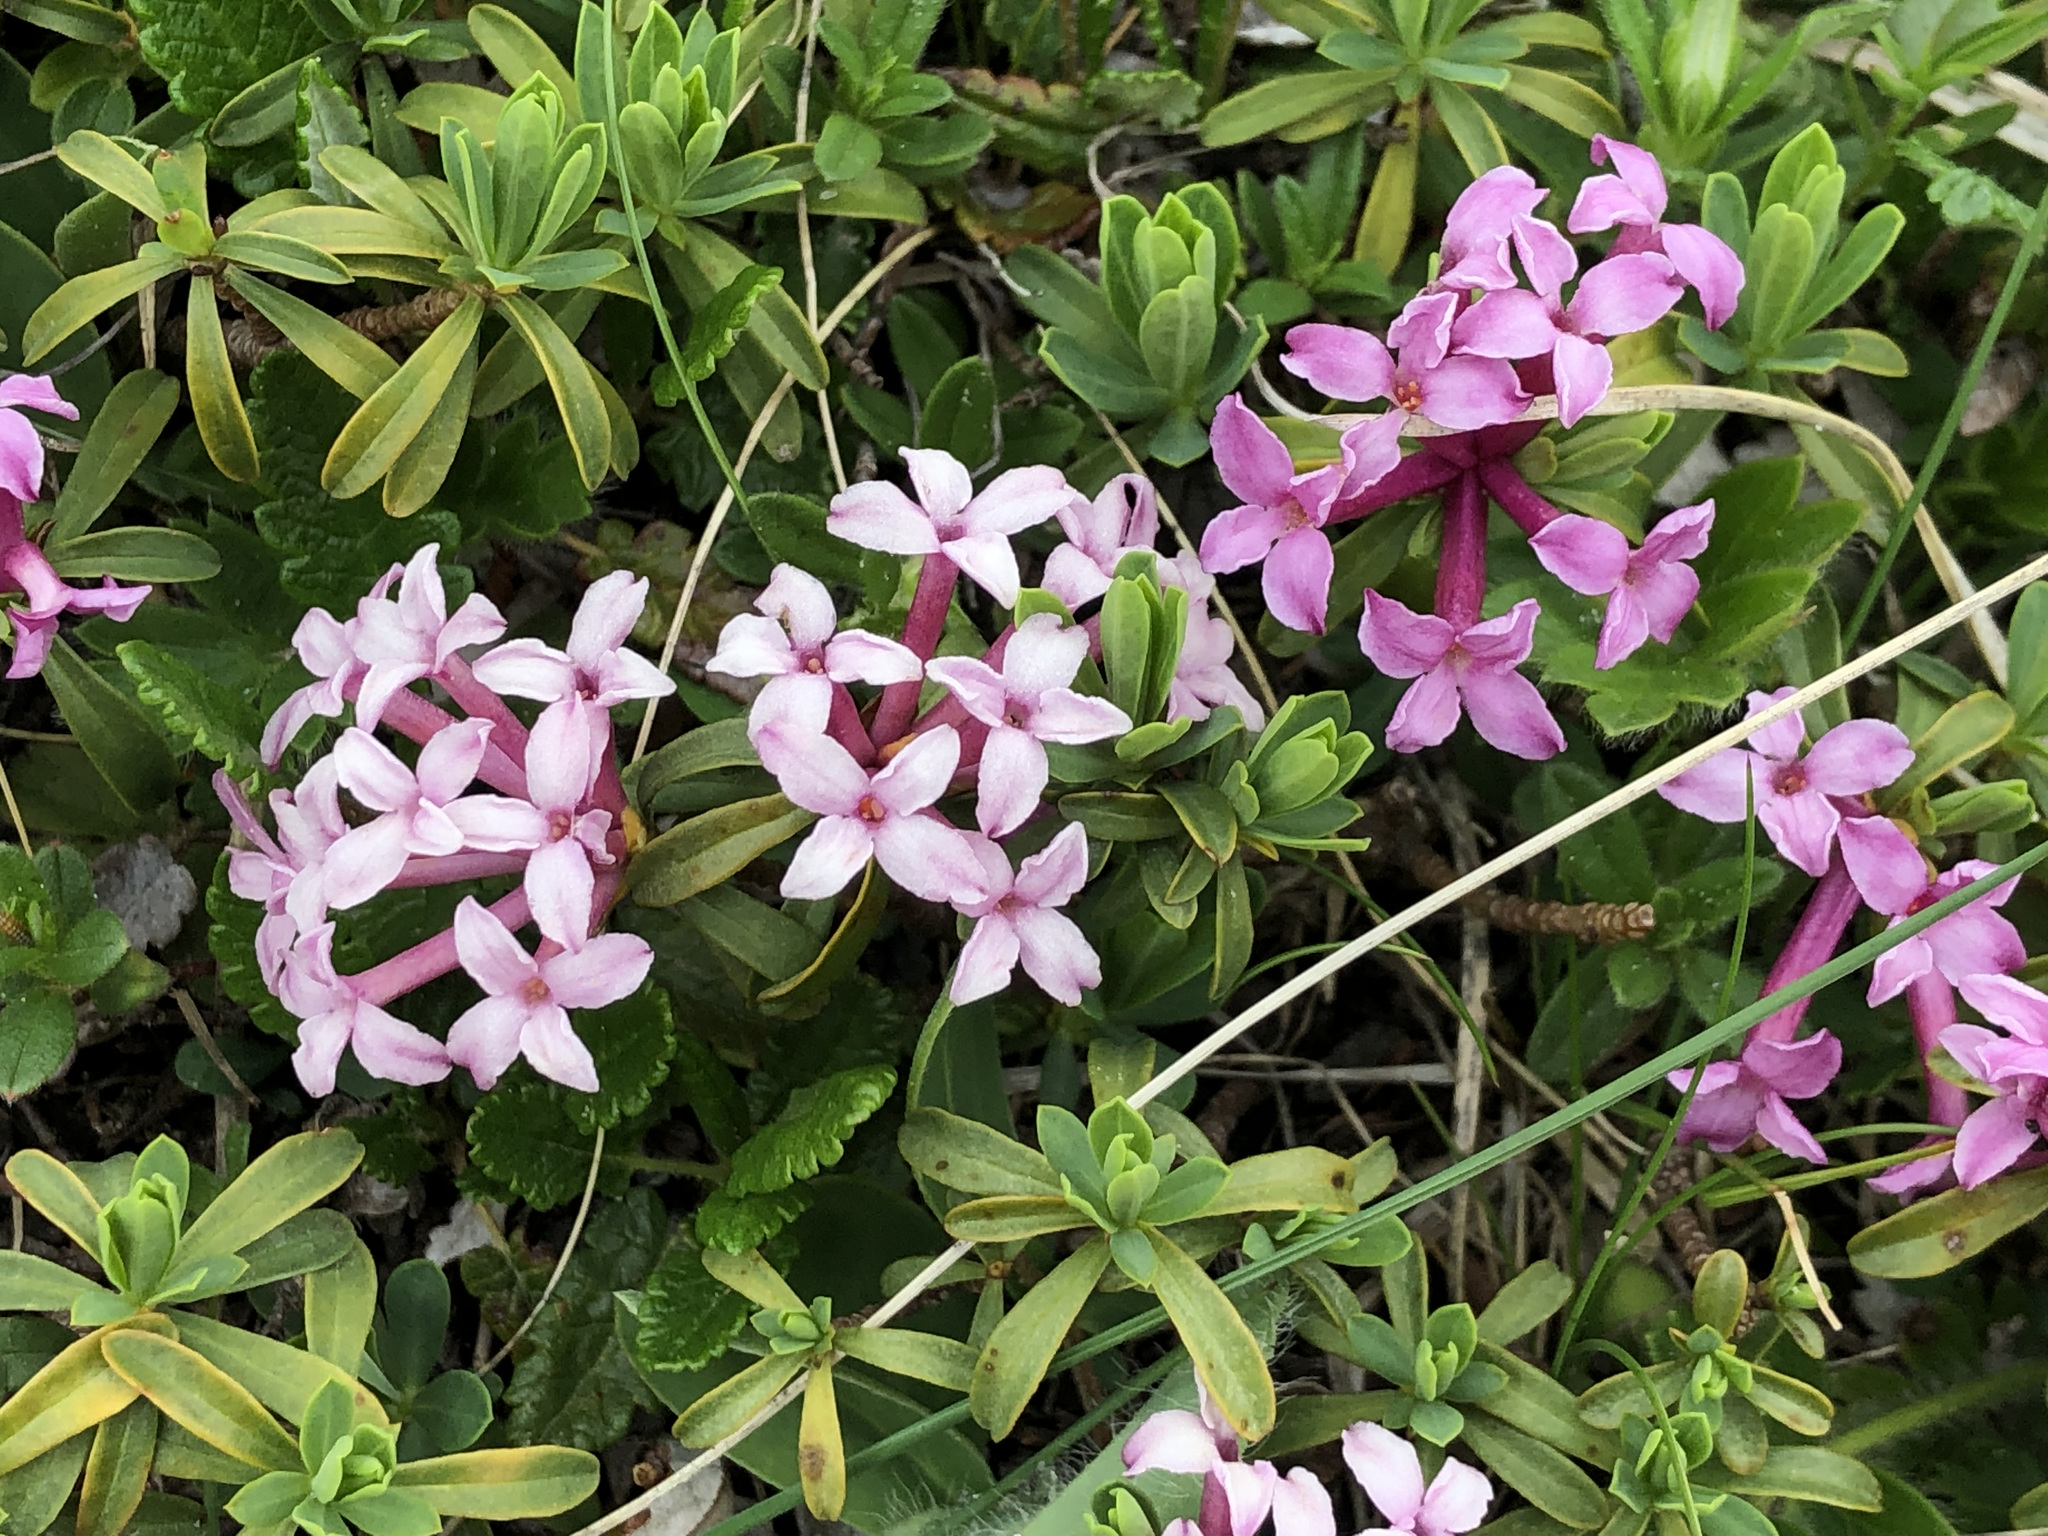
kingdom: Plantae
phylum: Tracheophyta
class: Magnoliopsida
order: Malvales
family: Thymelaeaceae
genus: Daphne
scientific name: Daphne striata
